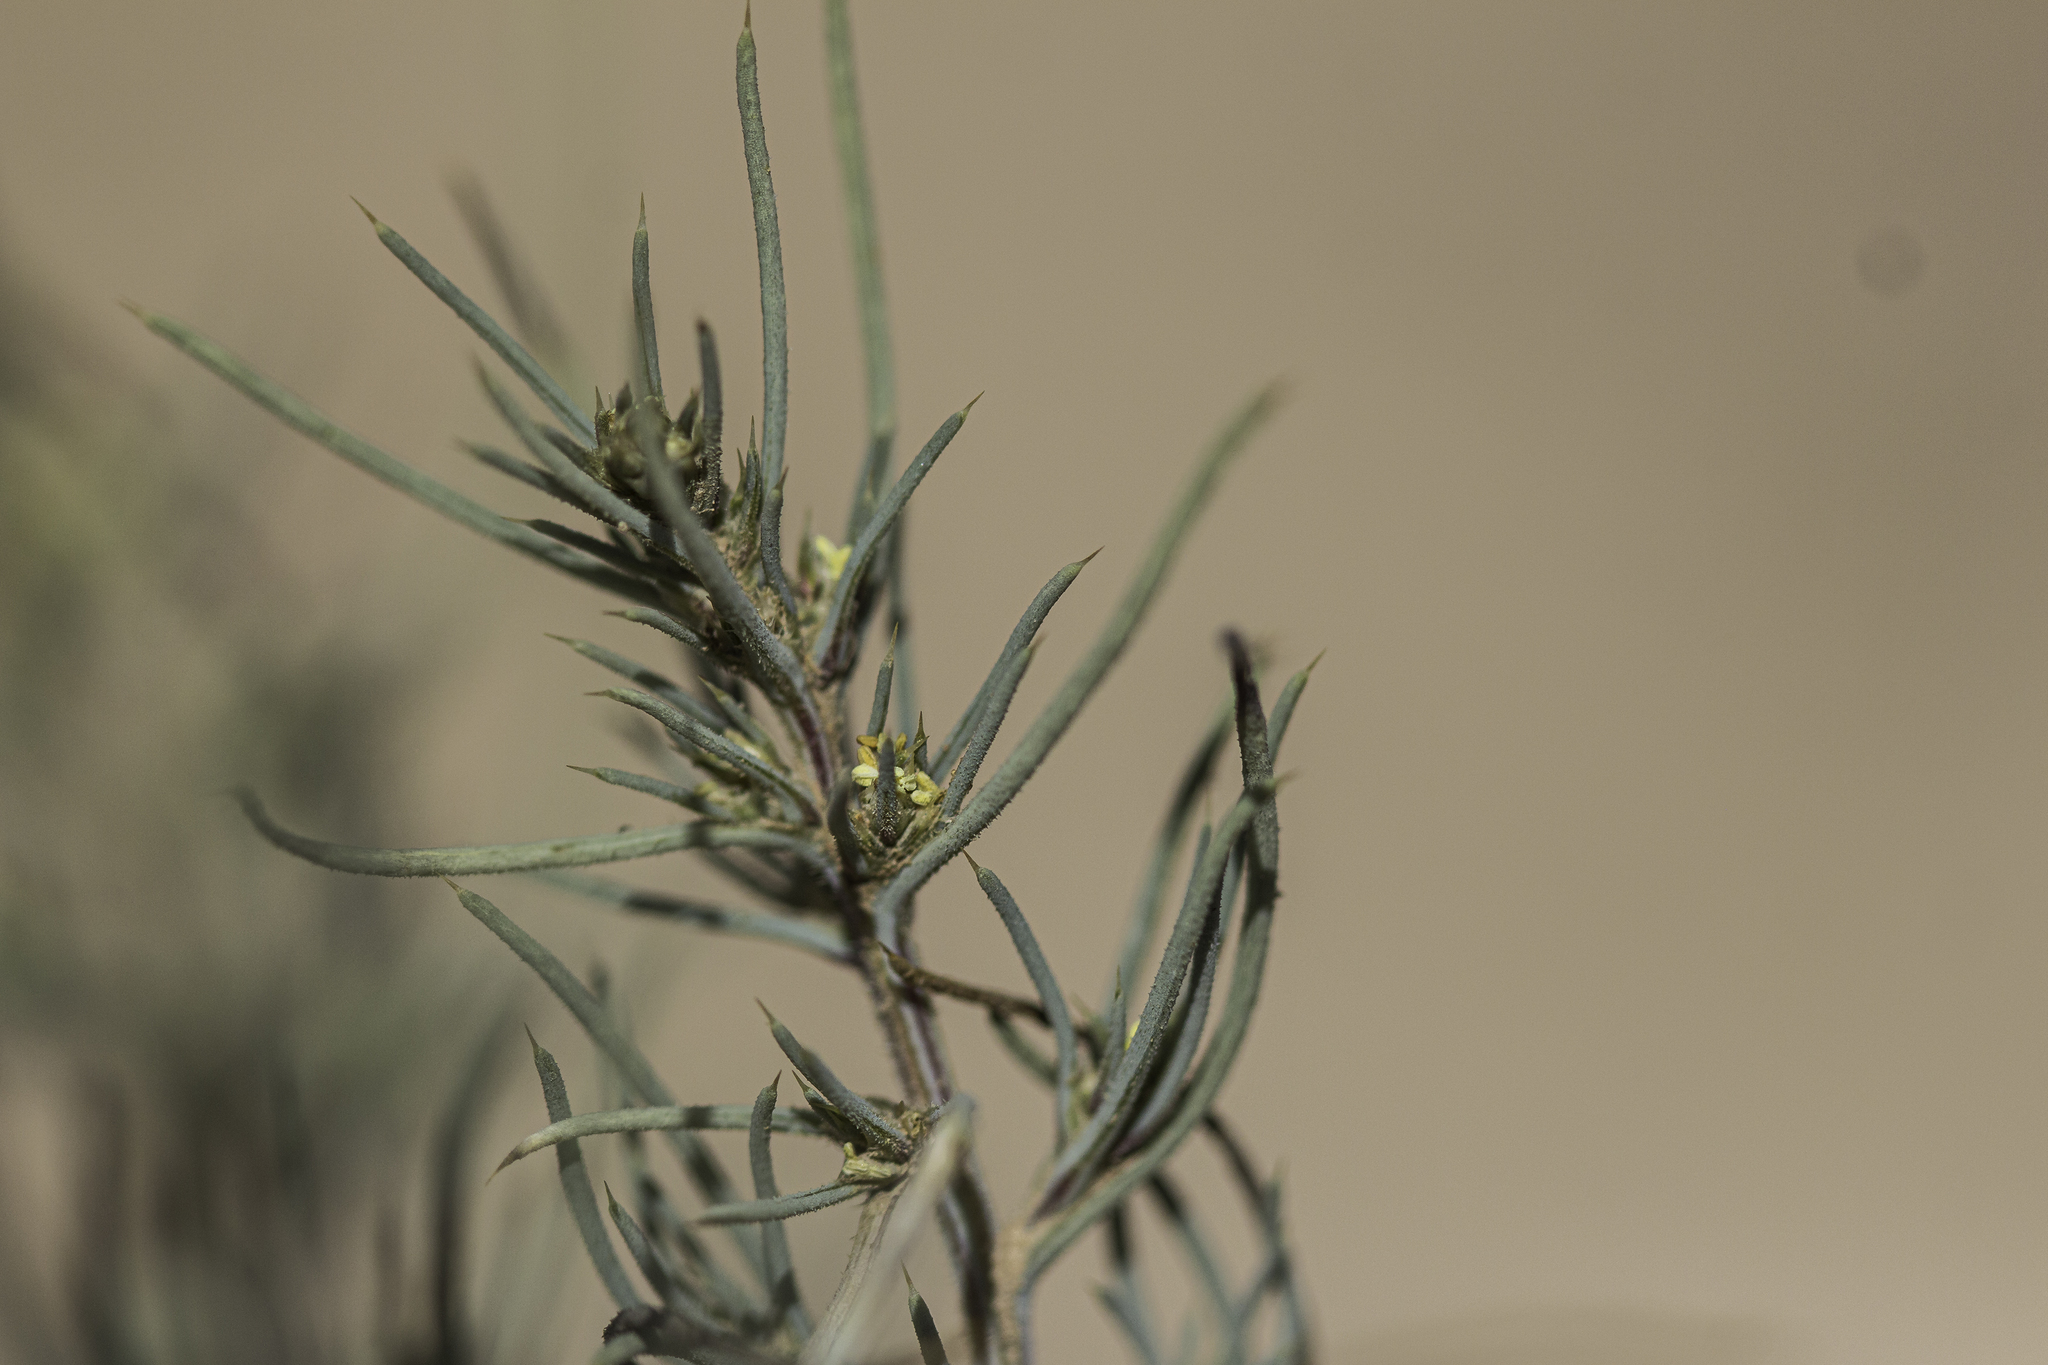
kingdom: Plantae
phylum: Tracheophyta
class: Magnoliopsida
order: Caryophyllales
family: Amaranthaceae
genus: Salsola
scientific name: Salsola collina
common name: Tumbleweed
